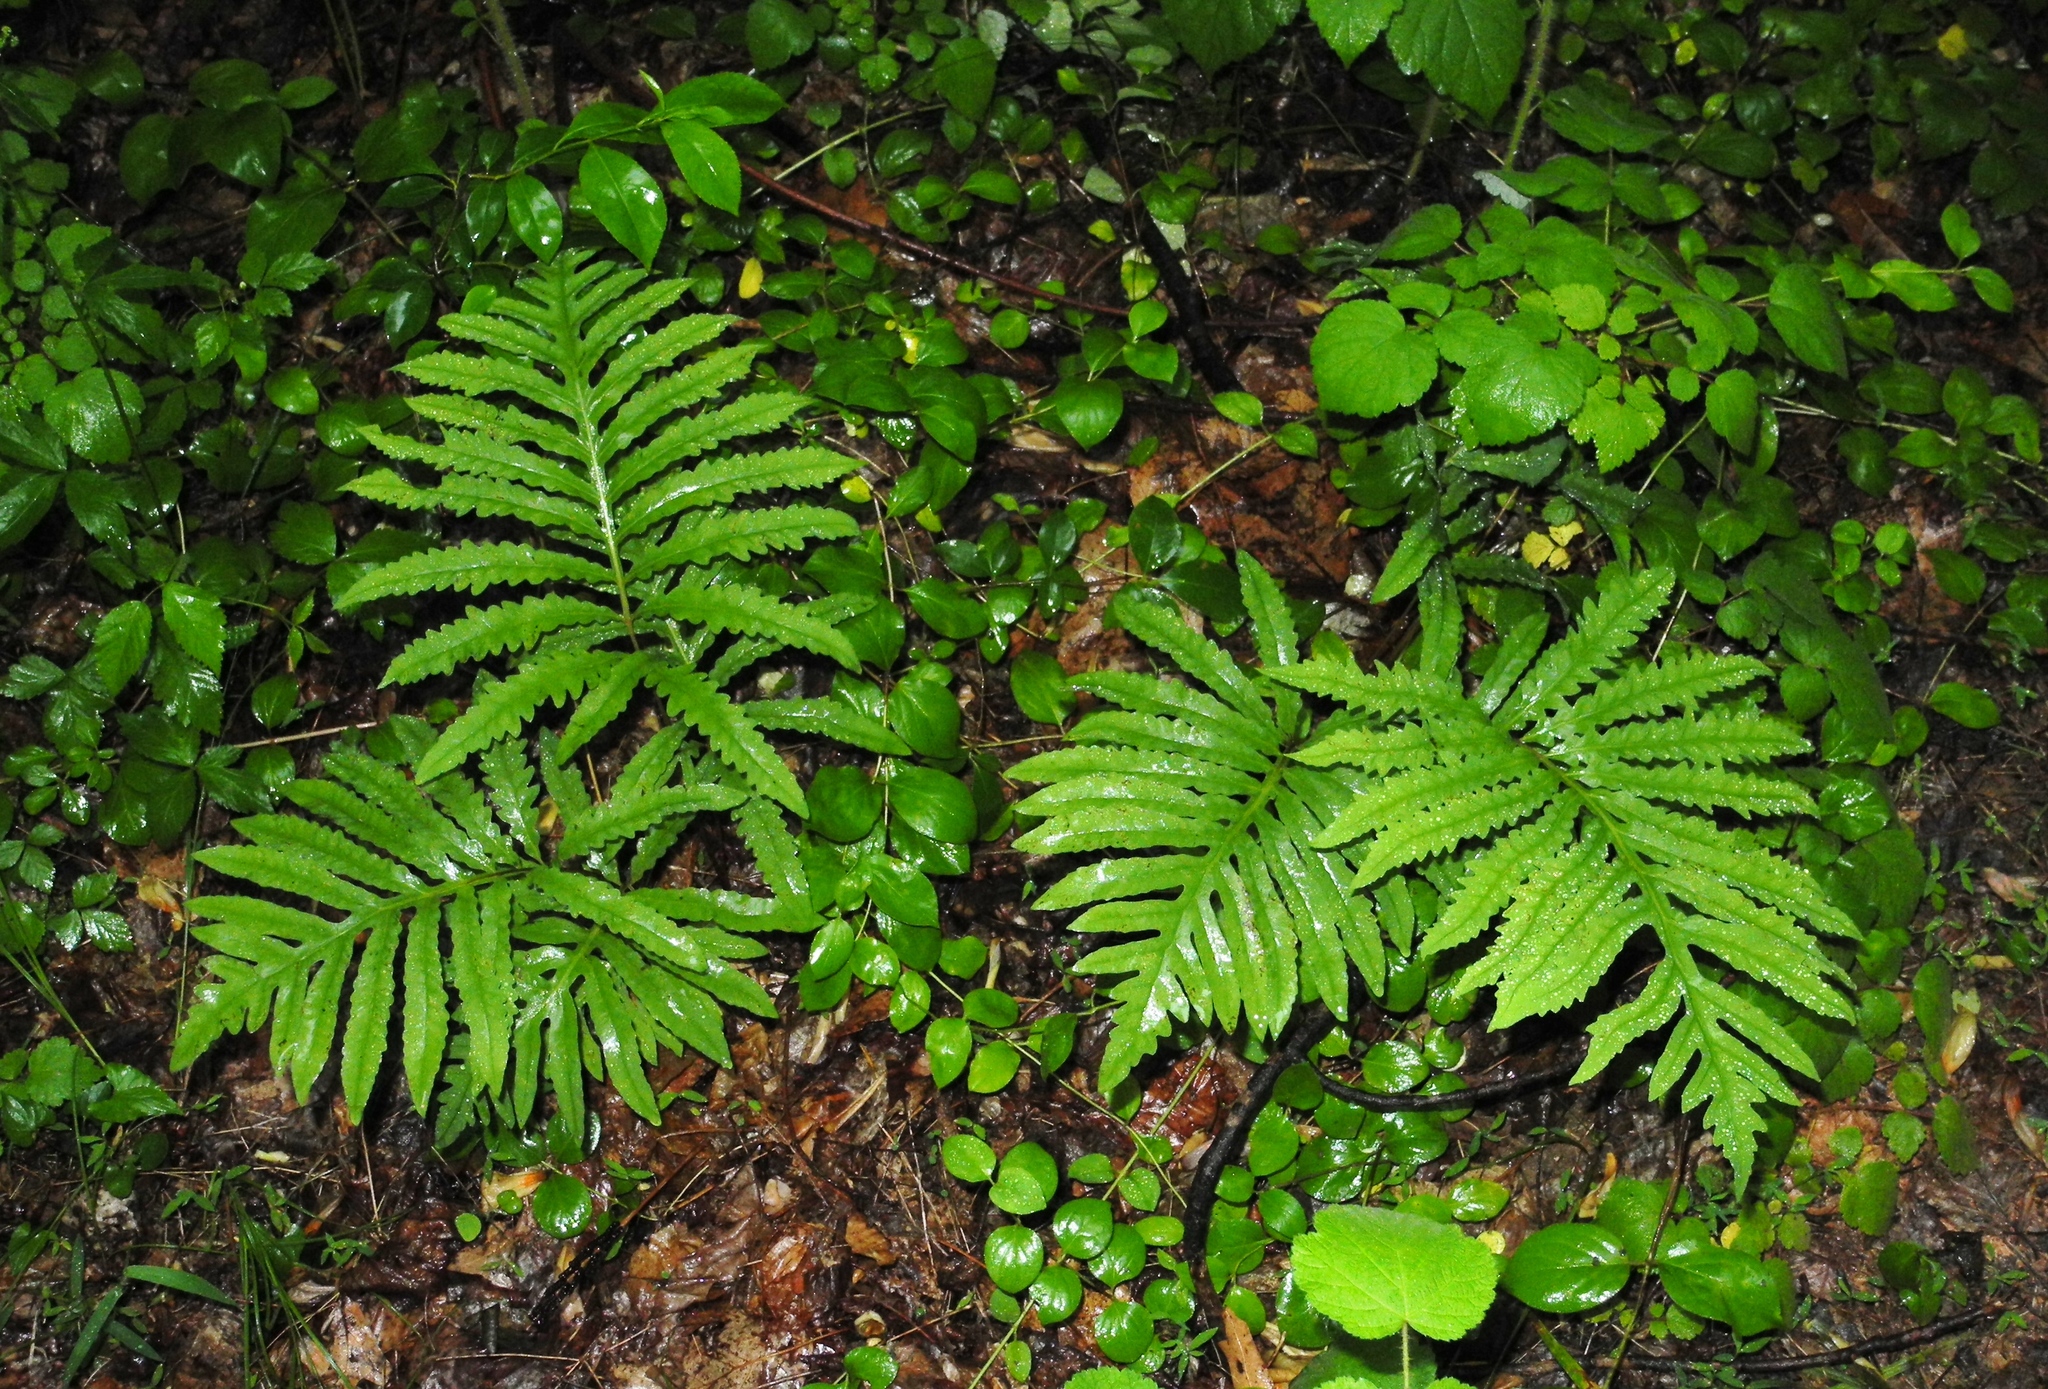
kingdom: Plantae
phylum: Tracheophyta
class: Polypodiopsida
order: Polypodiales
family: Onocleaceae
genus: Onoclea
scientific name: Onoclea sensibilis
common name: Sensitive fern
